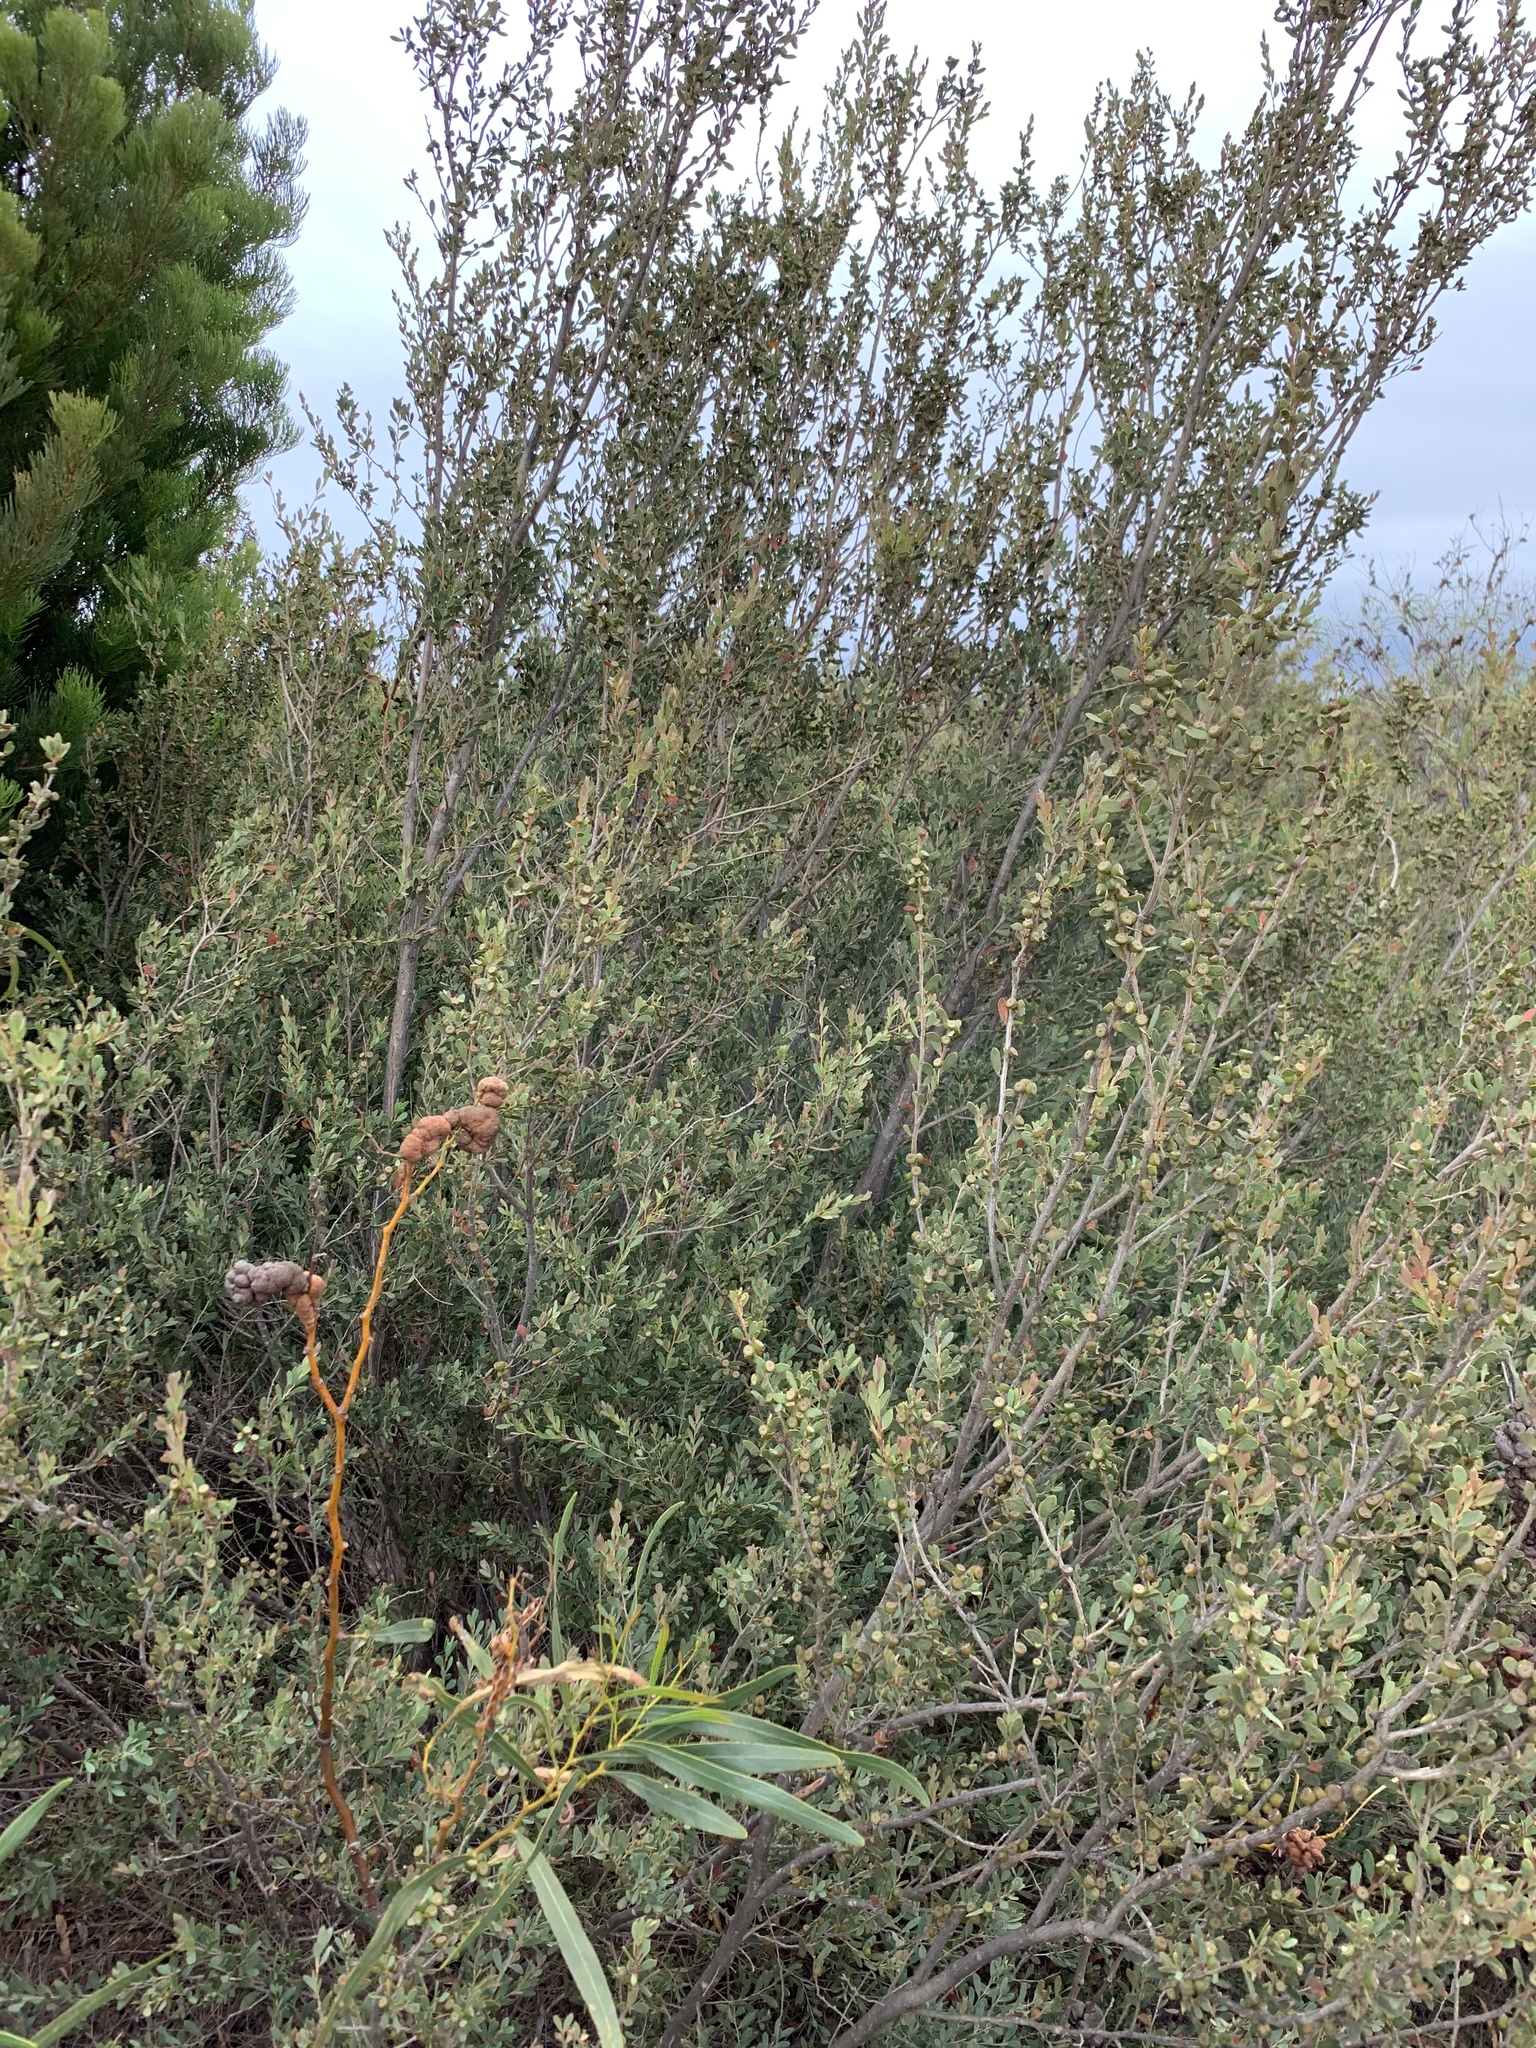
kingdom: Plantae
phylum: Tracheophyta
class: Magnoliopsida
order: Myrtales
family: Myrtaceae
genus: Leptospermum
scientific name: Leptospermum laevigatum
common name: Australian teatree
